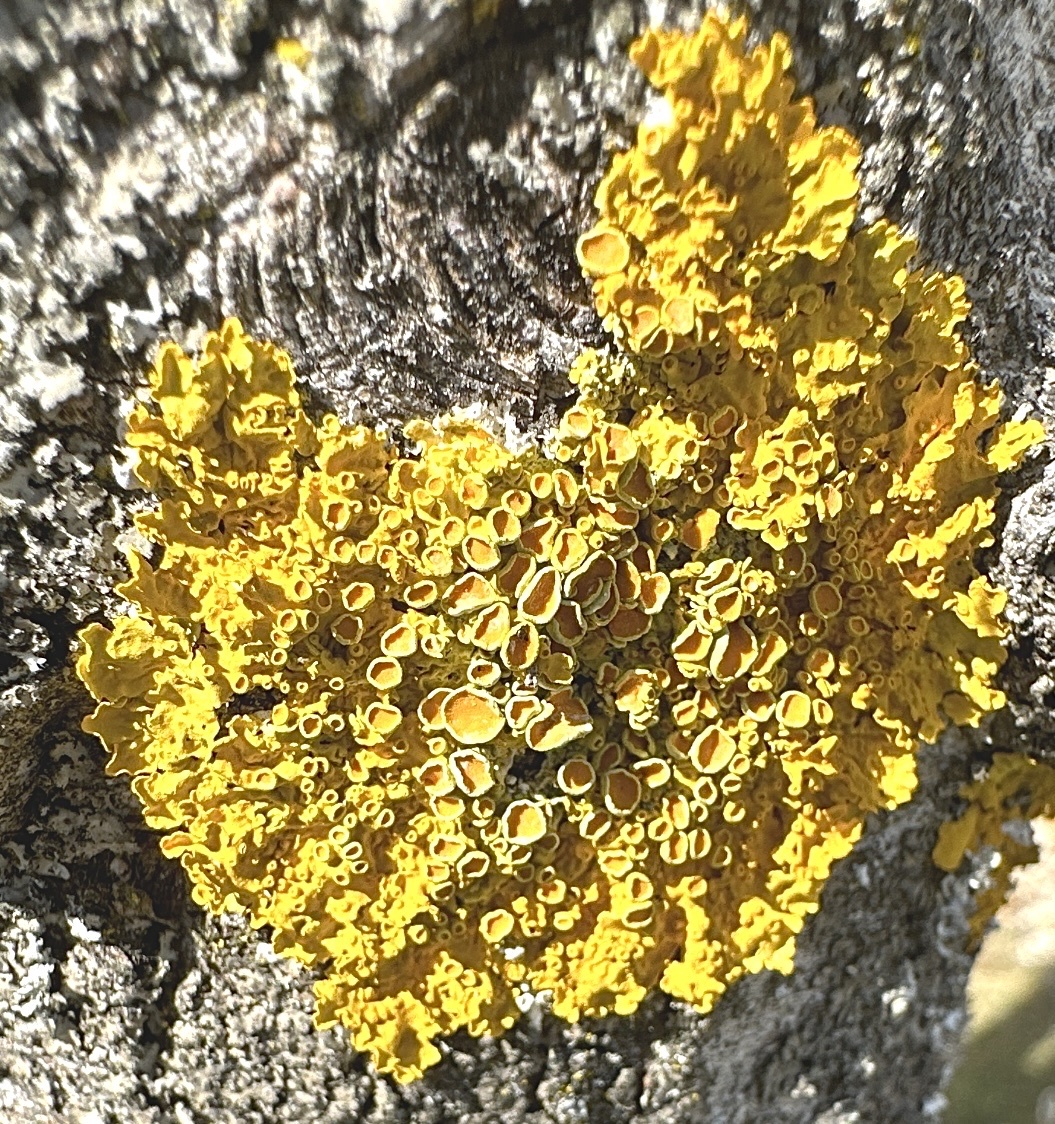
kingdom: Fungi
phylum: Ascomycota
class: Lecanoromycetes
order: Teloschistales
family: Teloschistaceae
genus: Xanthoria
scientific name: Xanthoria parietina
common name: Common orange lichen
